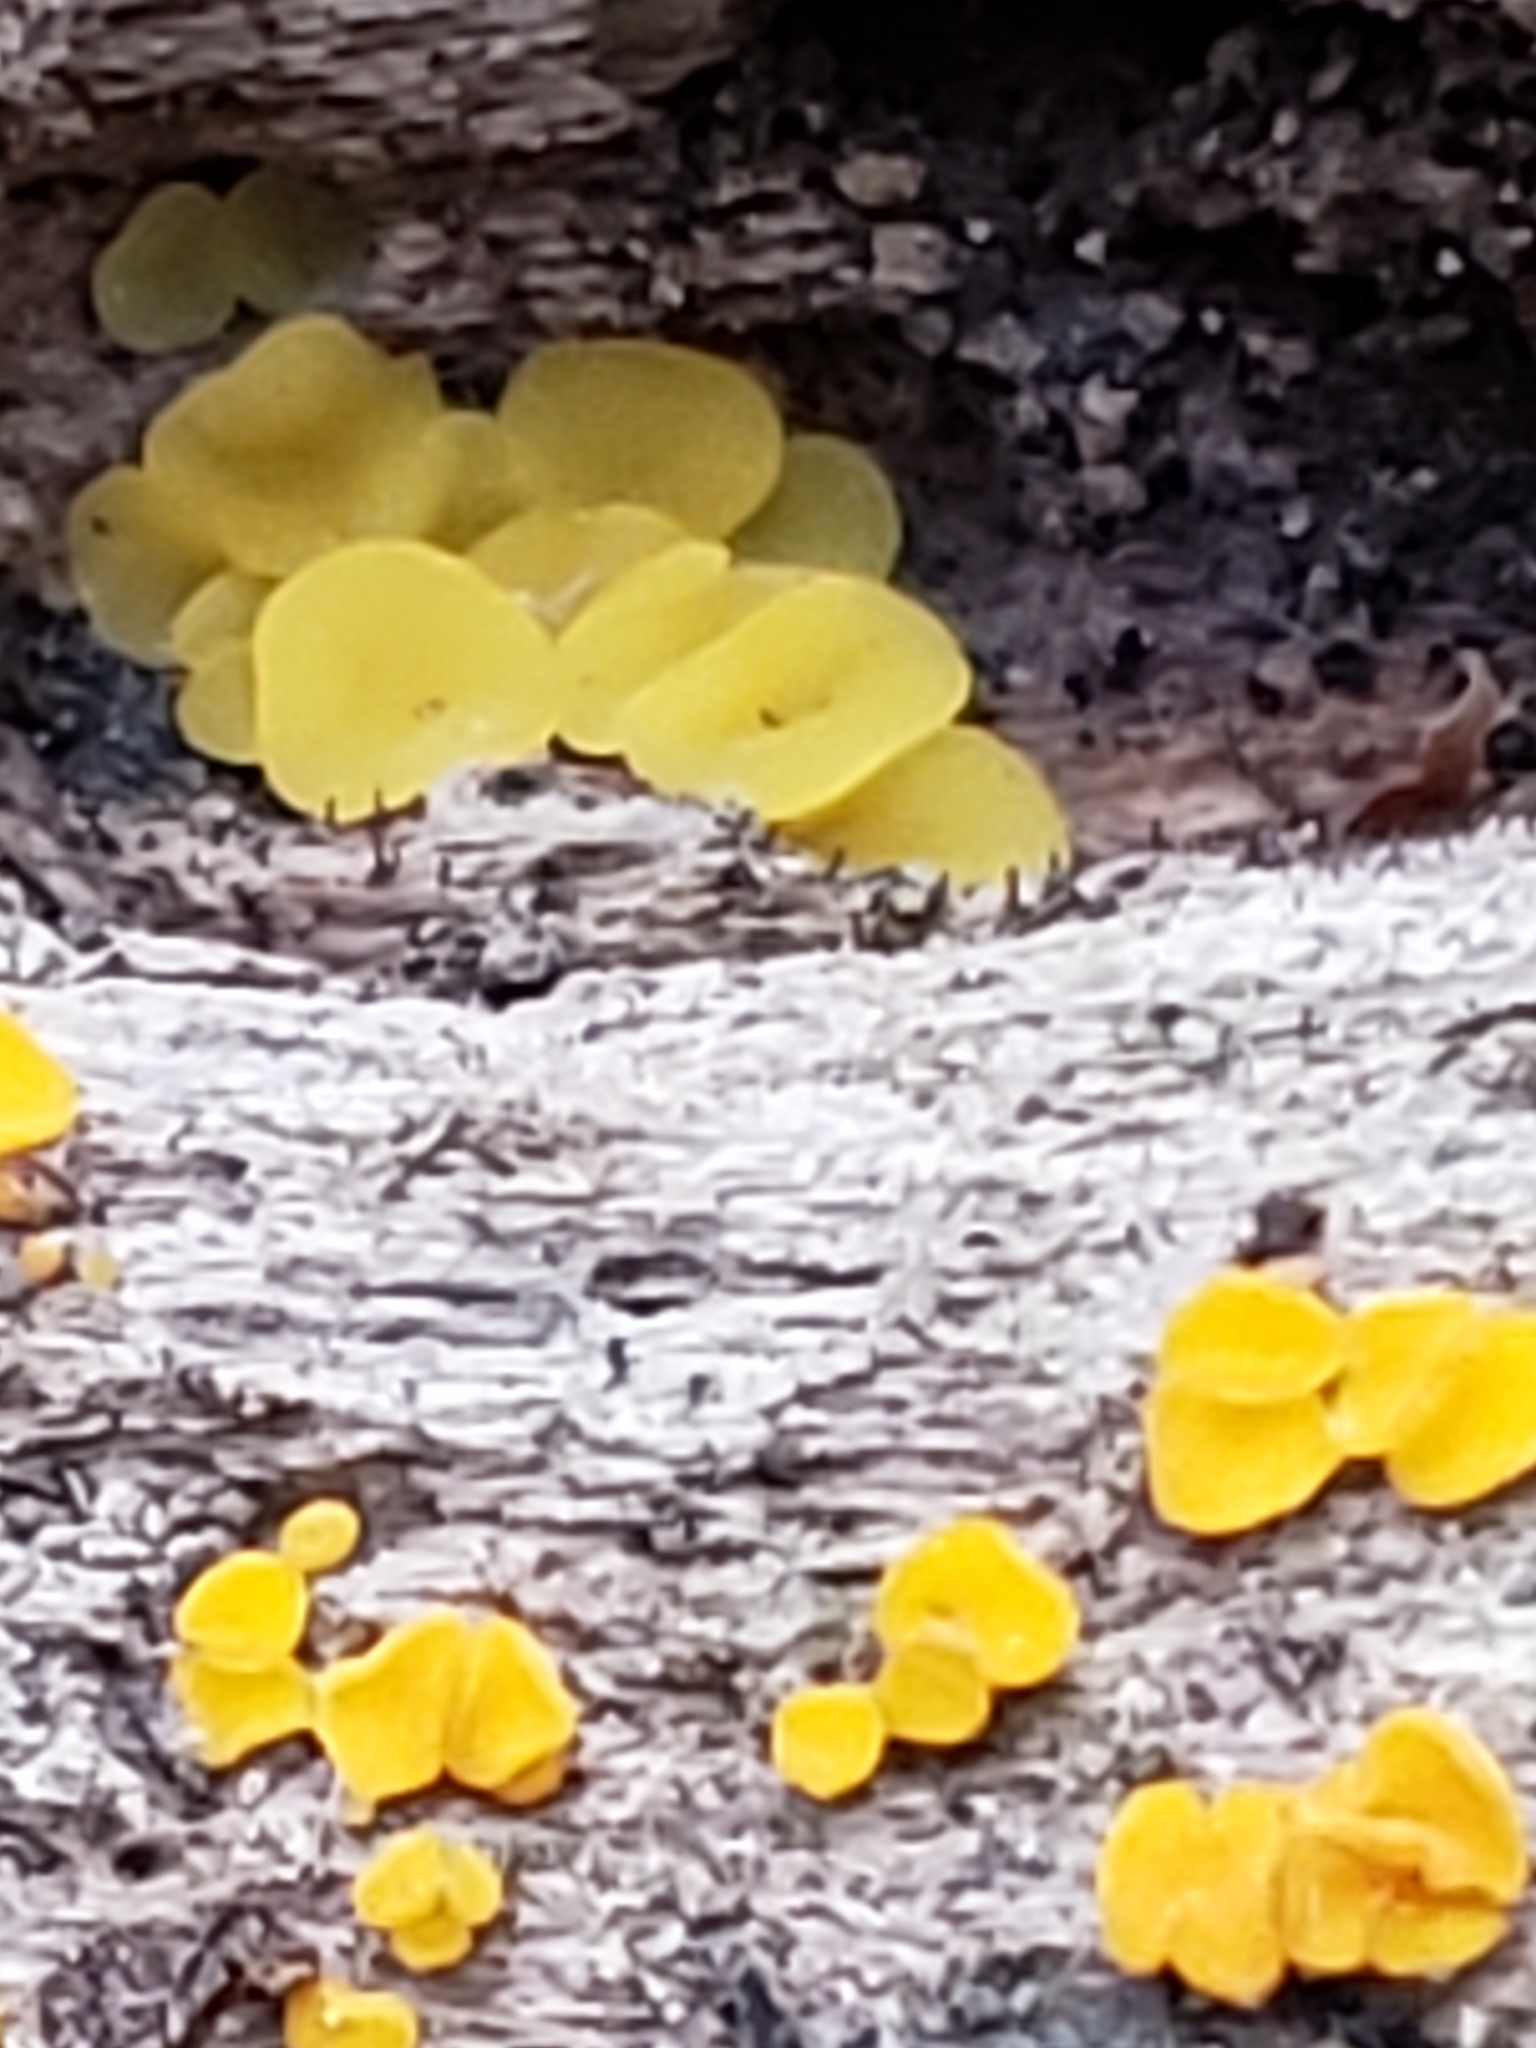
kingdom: Fungi
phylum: Ascomycota
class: Leotiomycetes
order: Helotiales
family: Pezizellaceae
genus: Calycina
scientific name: Calycina citrina
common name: Yellow fairy cups
